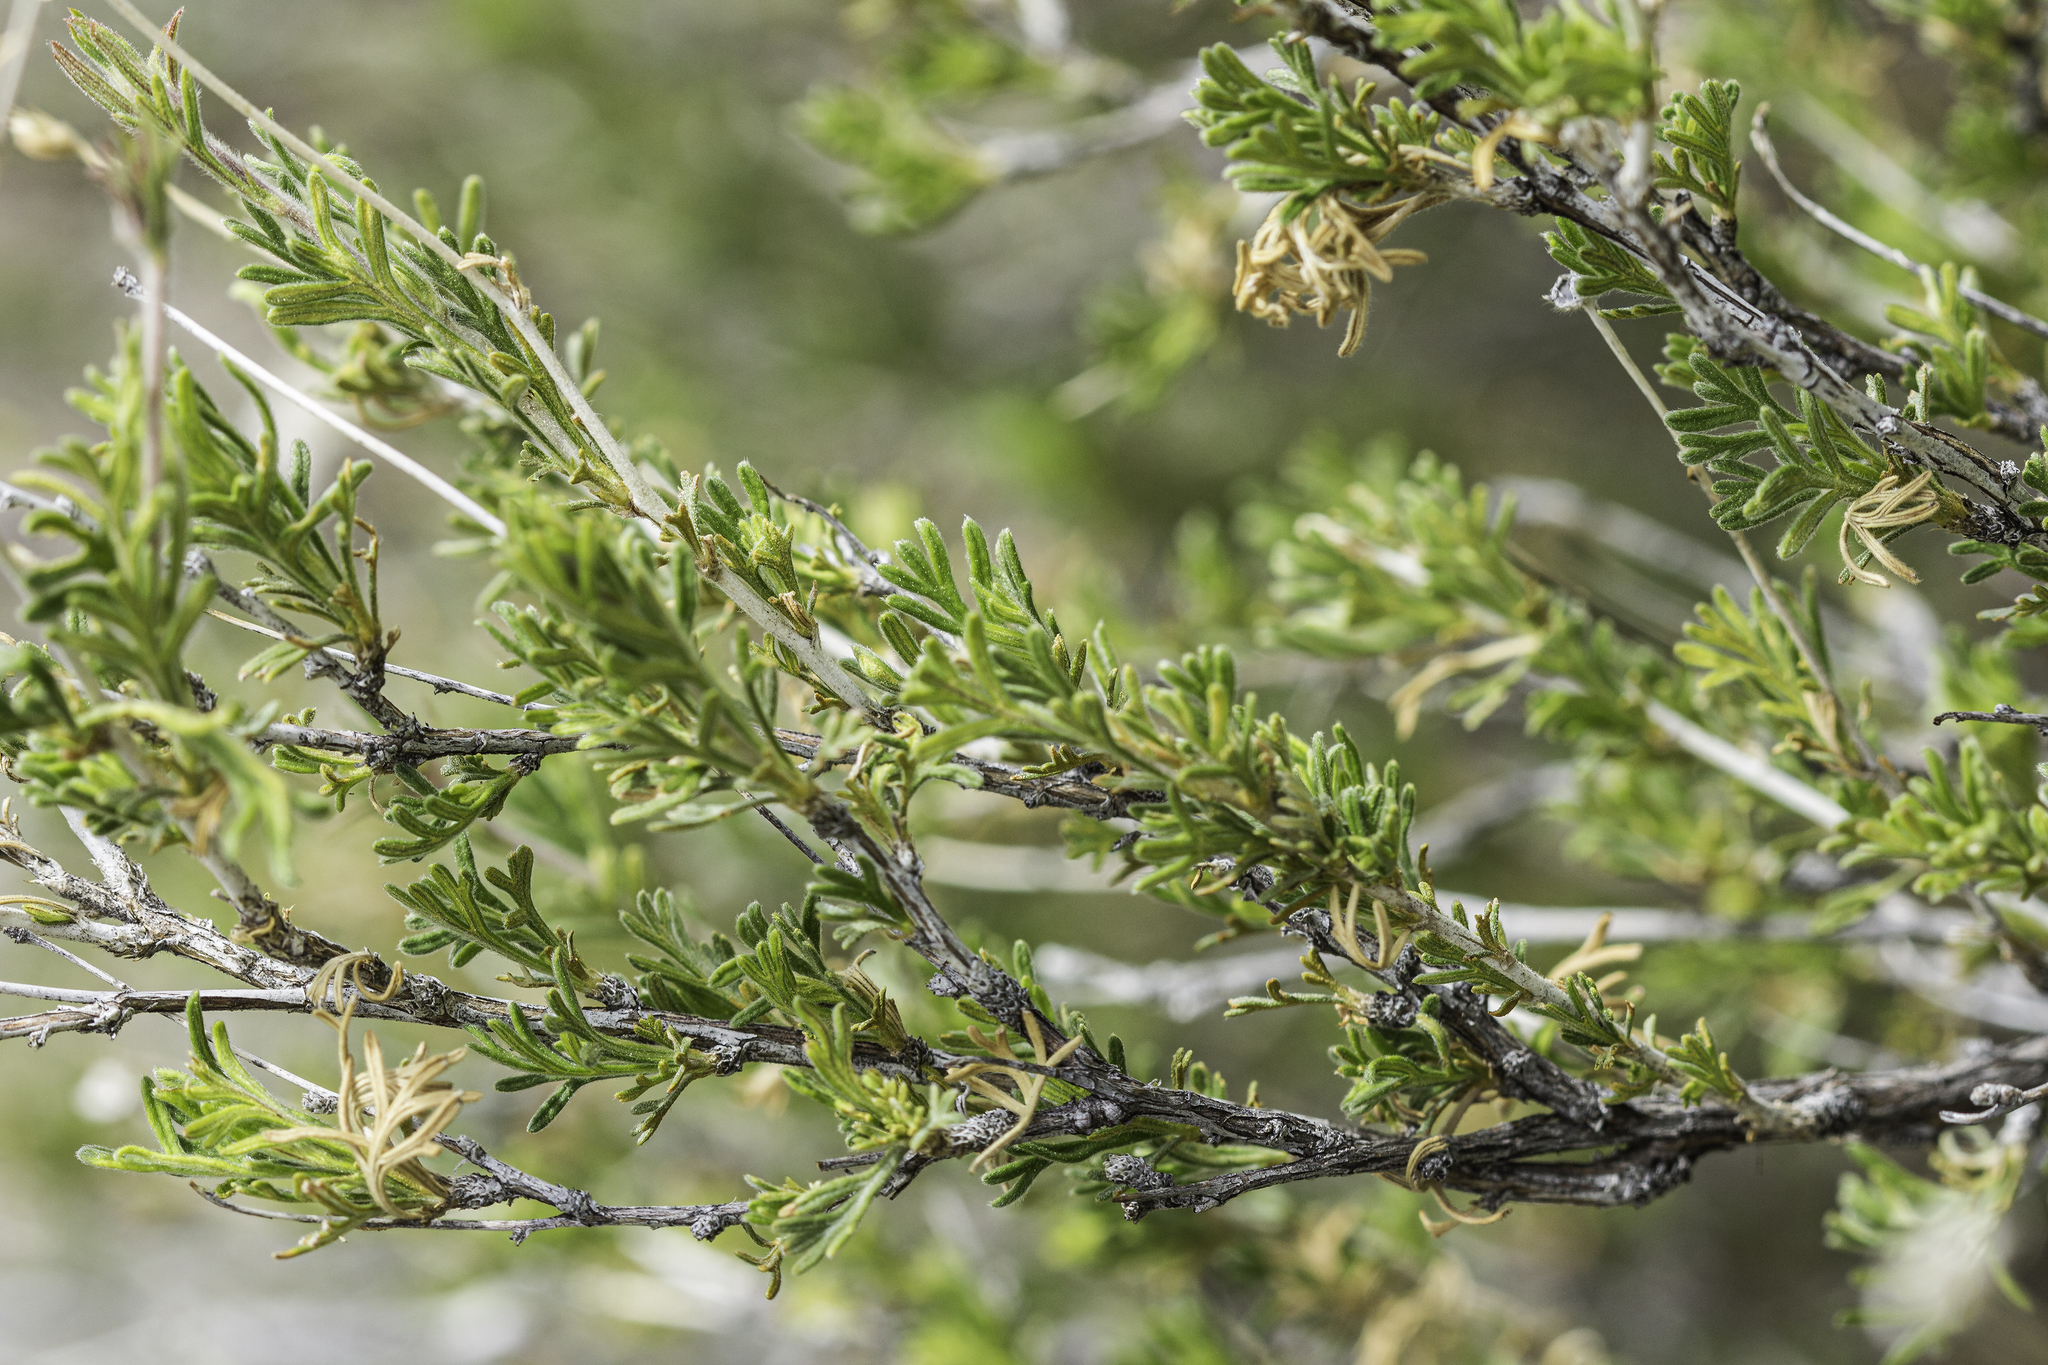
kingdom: Plantae
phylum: Tracheophyta
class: Magnoliopsida
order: Rosales
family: Rosaceae
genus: Fallugia
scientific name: Fallugia paradoxa
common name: Apache-plume
